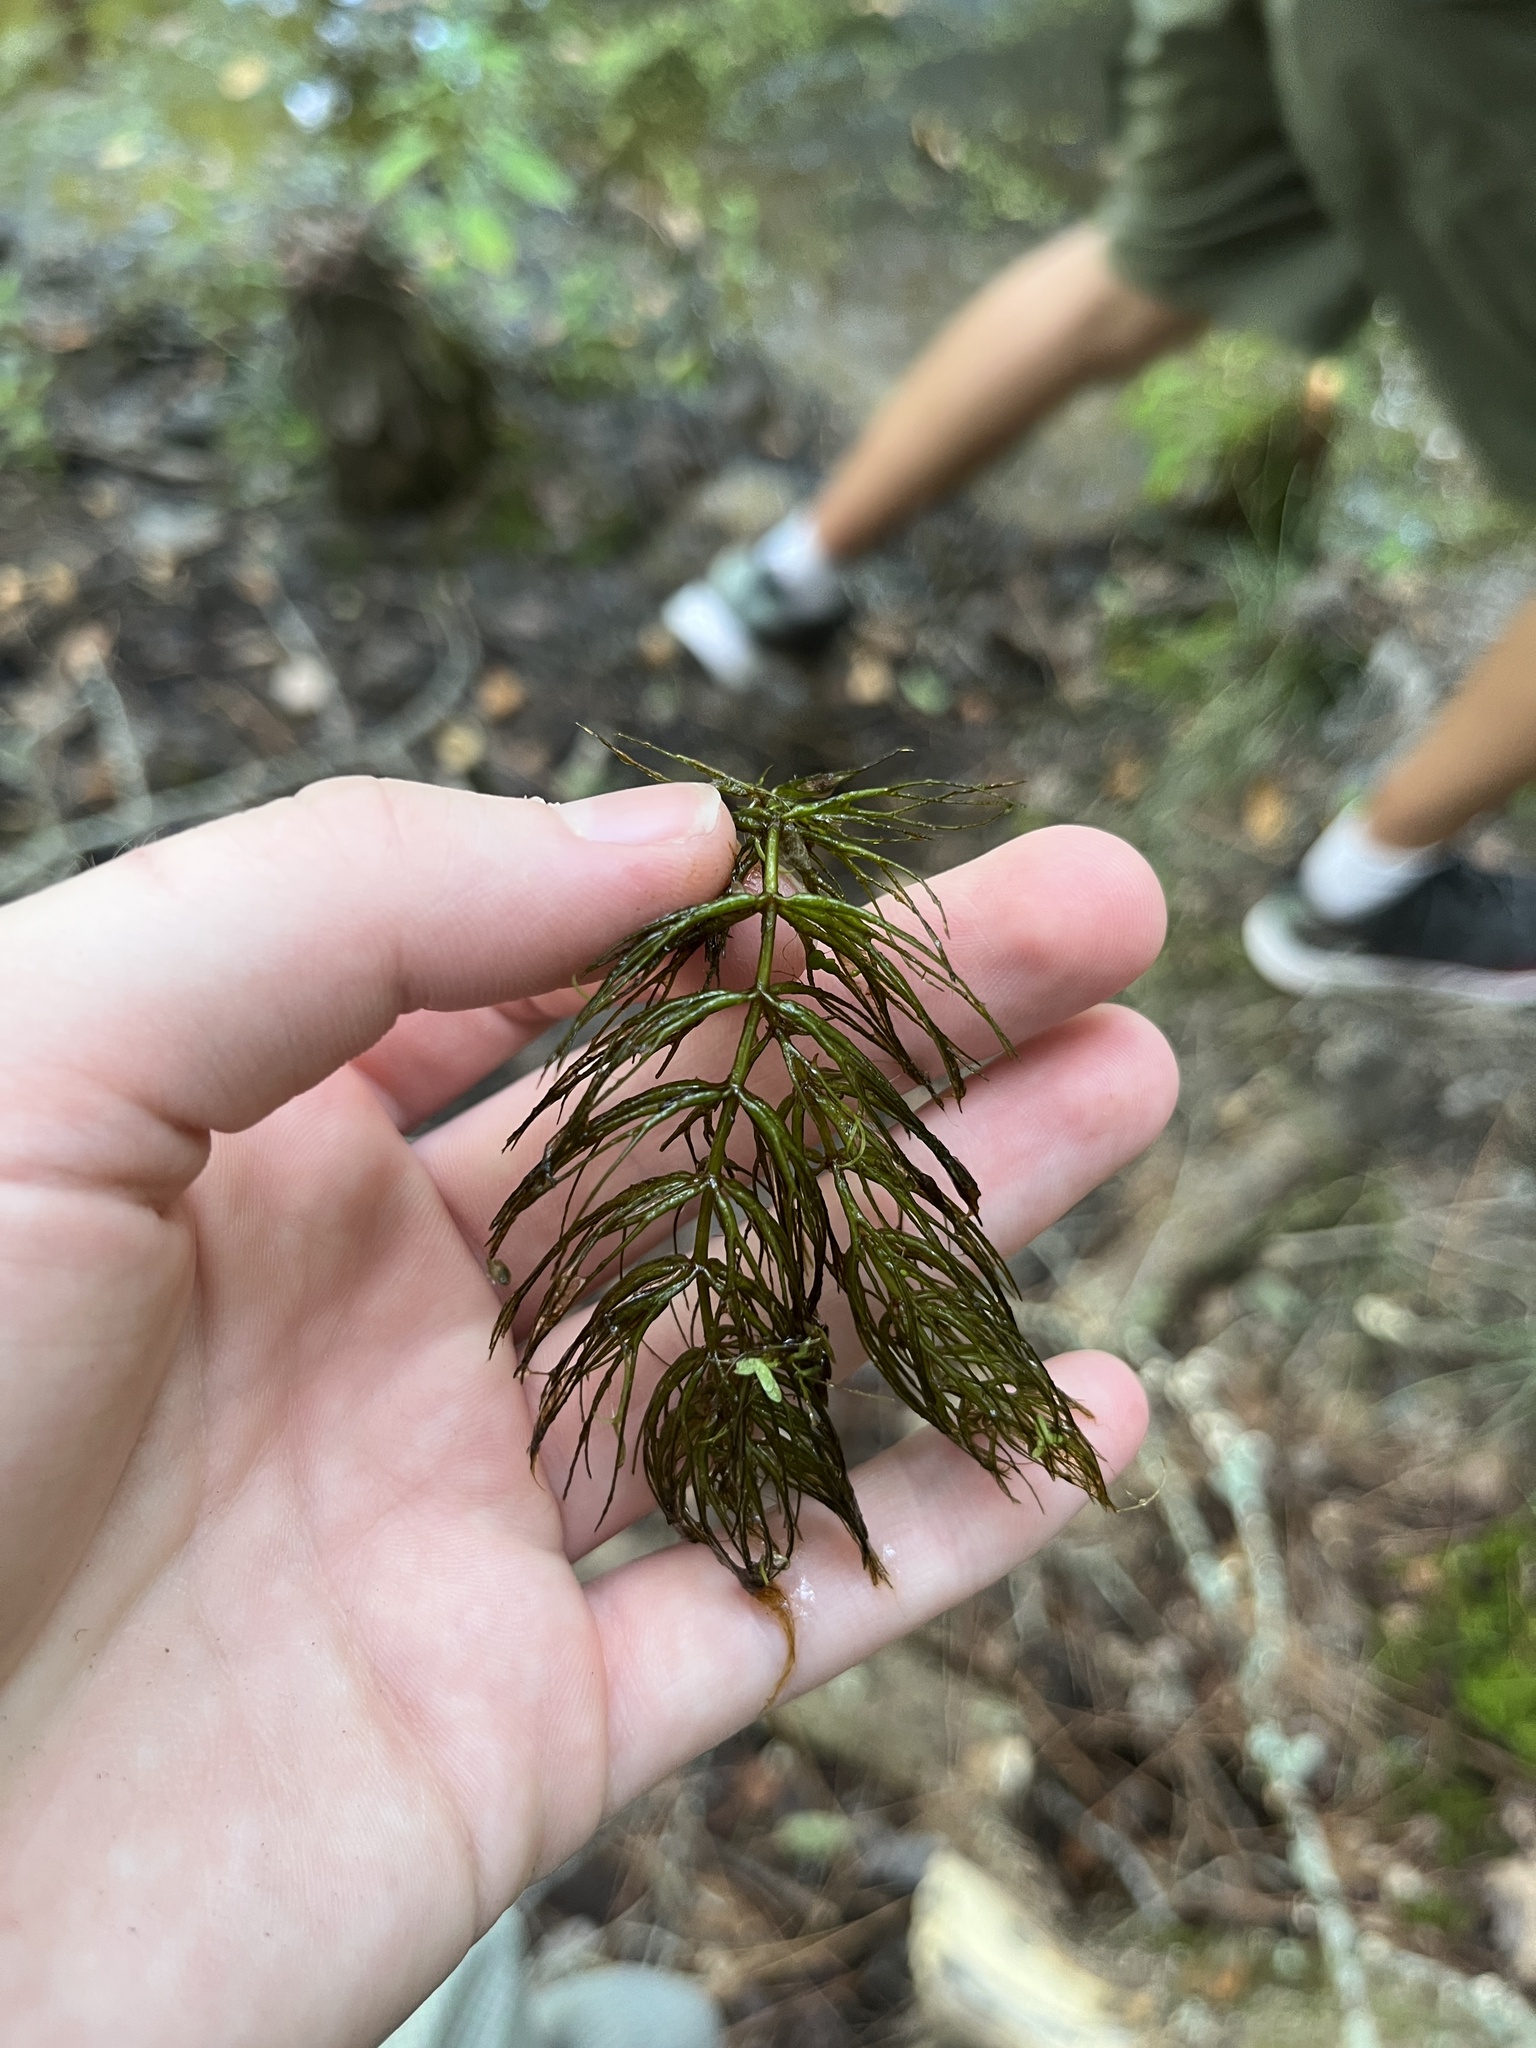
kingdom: Plantae
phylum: Tracheophyta
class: Magnoliopsida
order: Ceratophyllales
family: Ceratophyllaceae
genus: Ceratophyllum
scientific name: Ceratophyllum demersum
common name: Rigid hornwort
